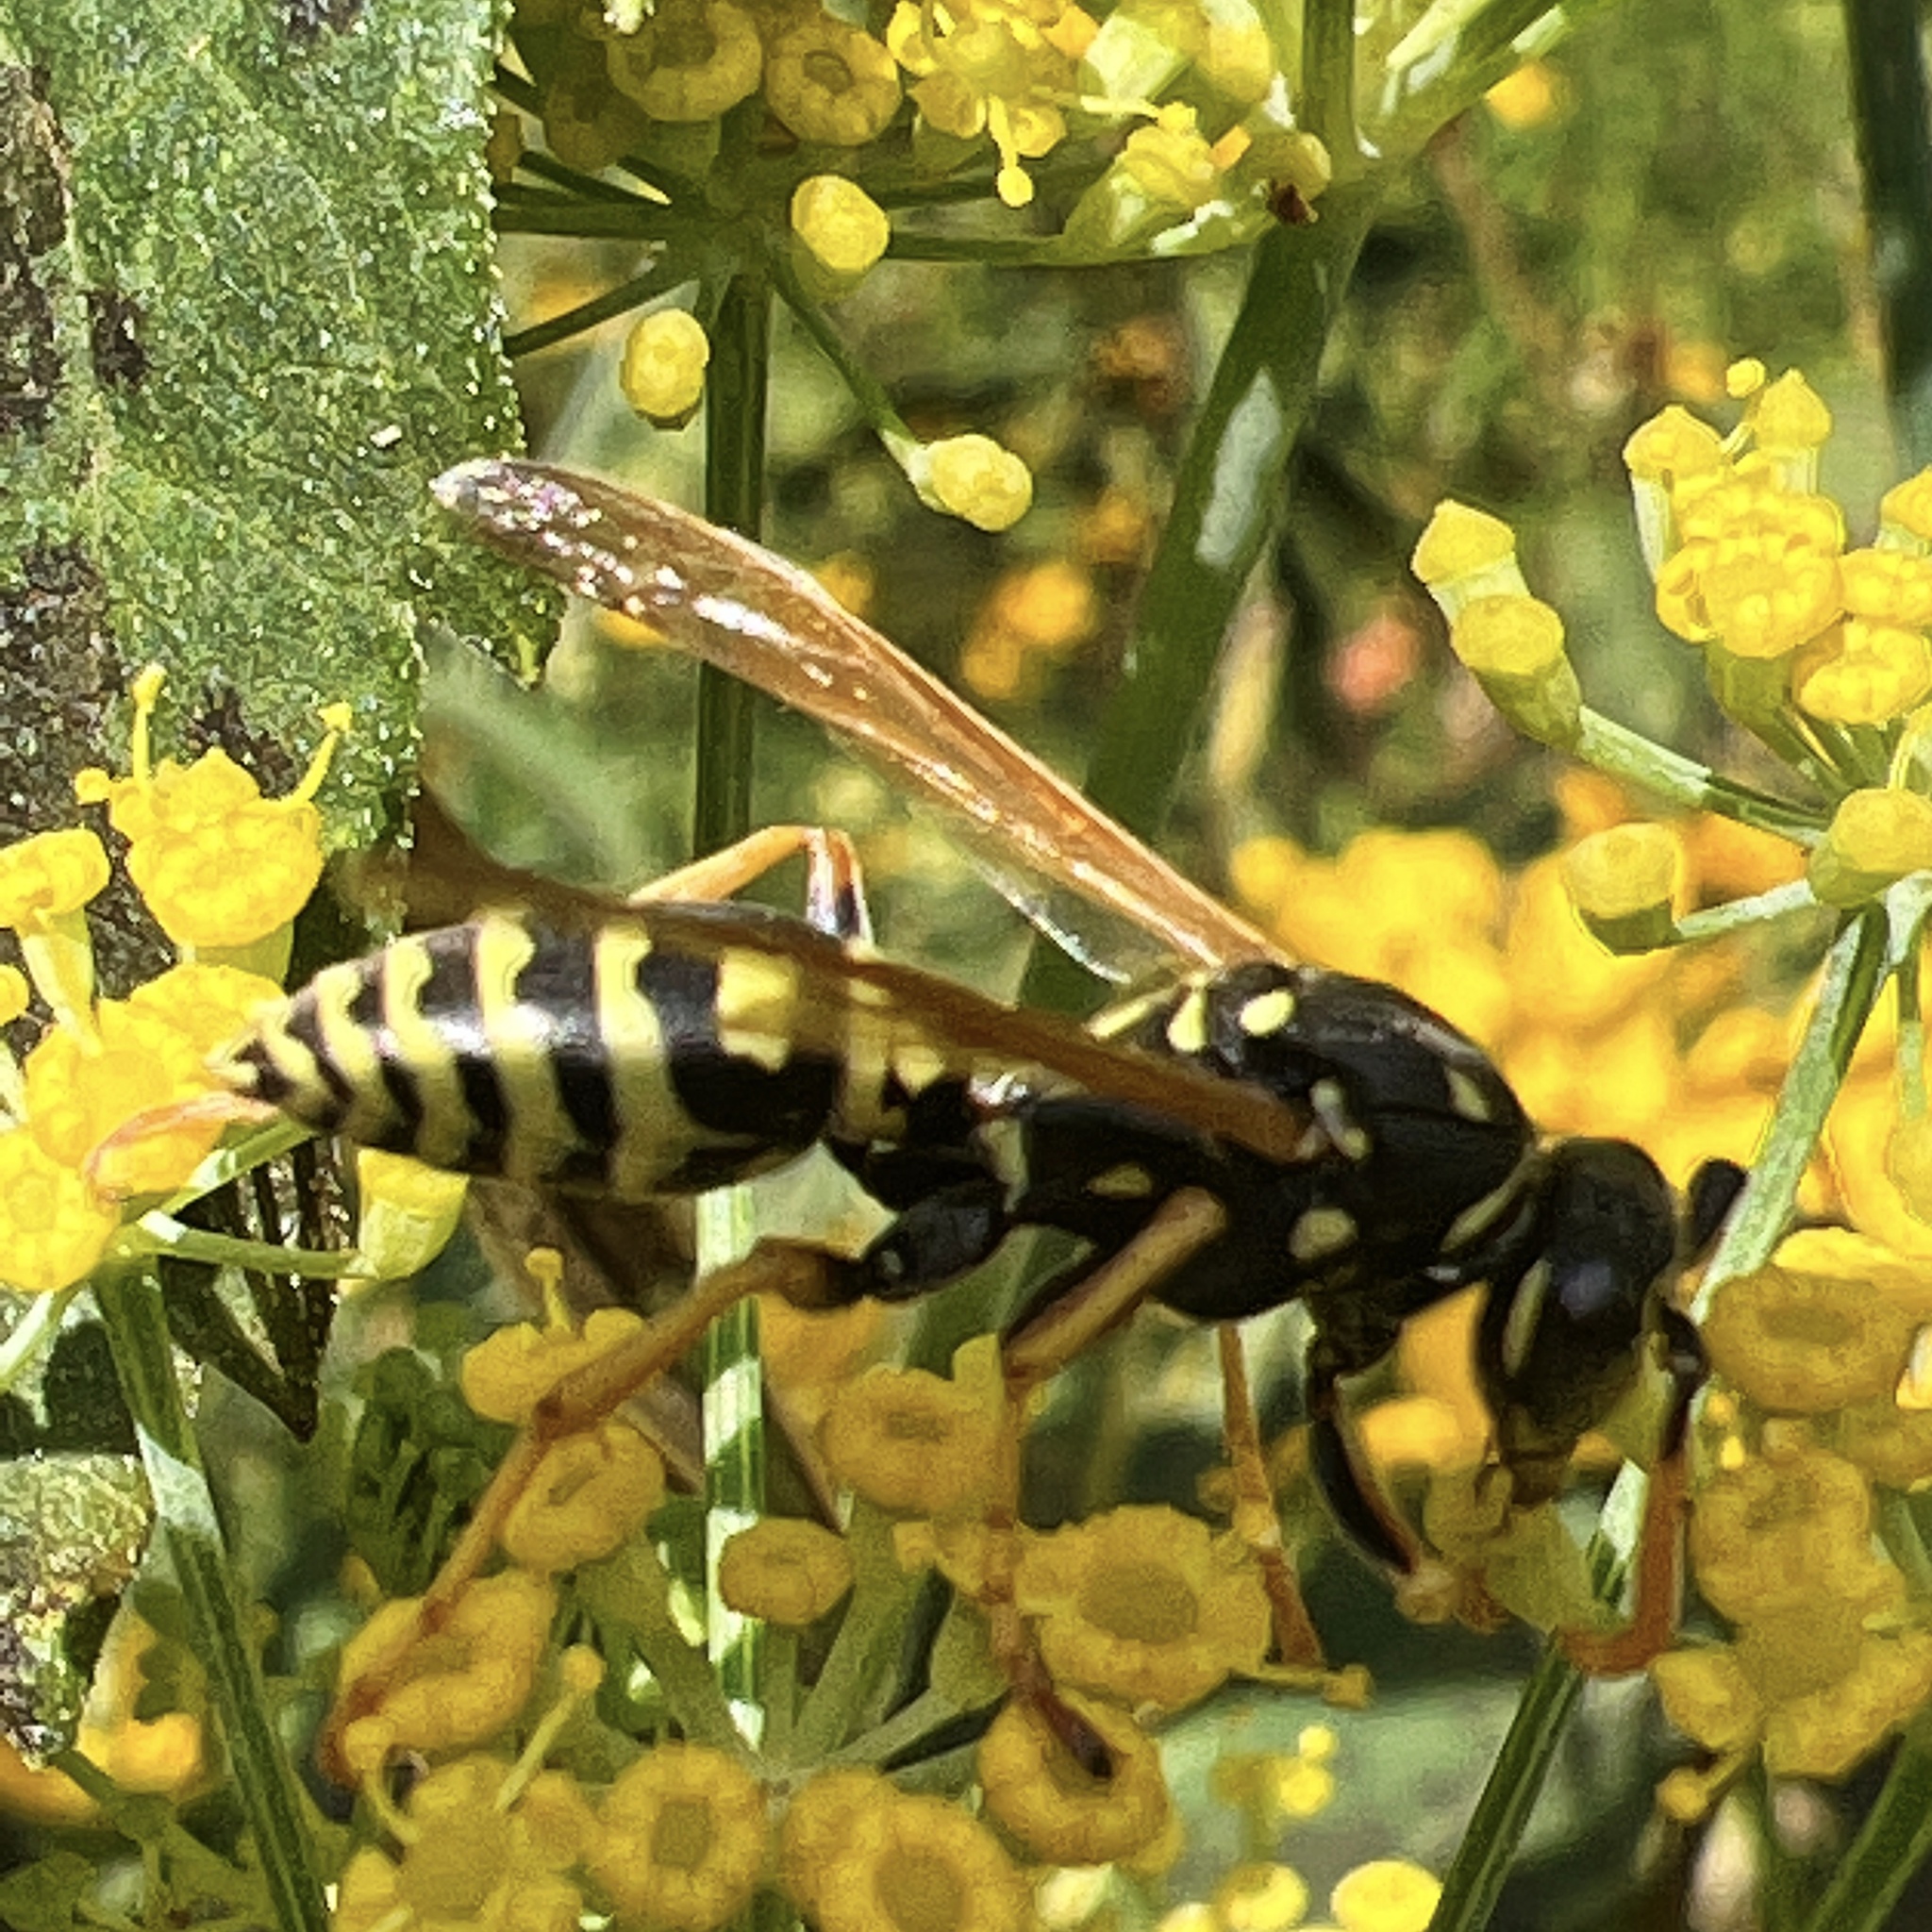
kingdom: Animalia
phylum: Arthropoda
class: Insecta
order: Hymenoptera
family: Eumenidae
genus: Polistes
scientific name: Polistes dominula
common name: Paper wasp
